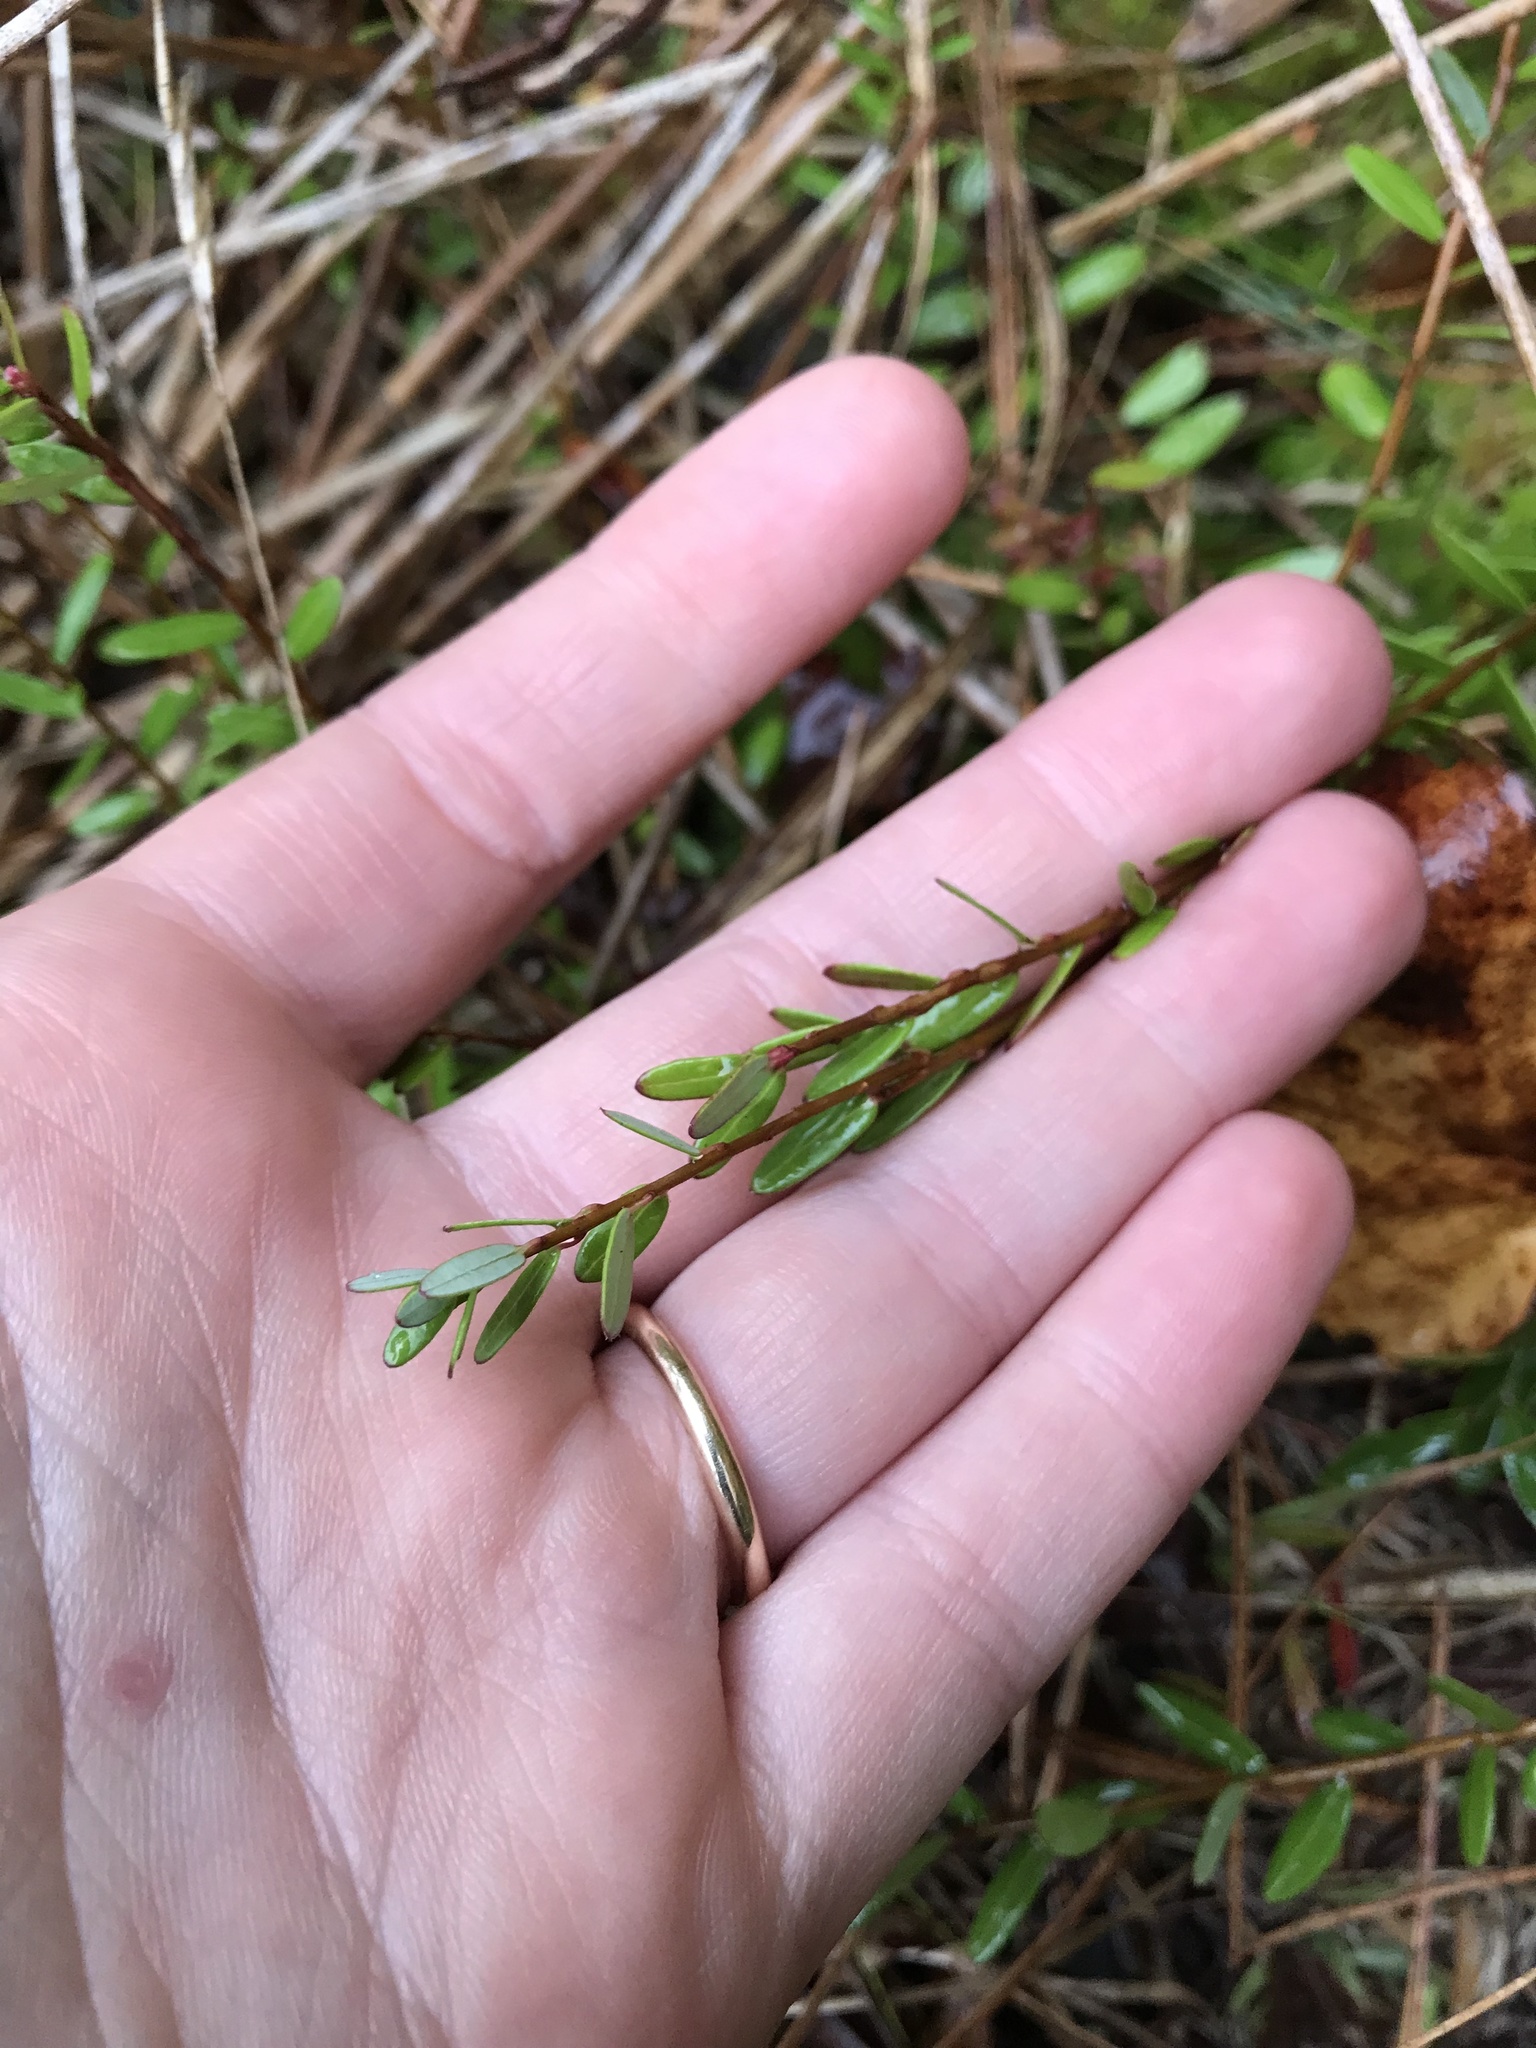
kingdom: Plantae
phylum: Tracheophyta
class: Magnoliopsida
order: Ericales
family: Ericaceae
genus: Vaccinium
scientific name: Vaccinium macrocarpon
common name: American cranberry
